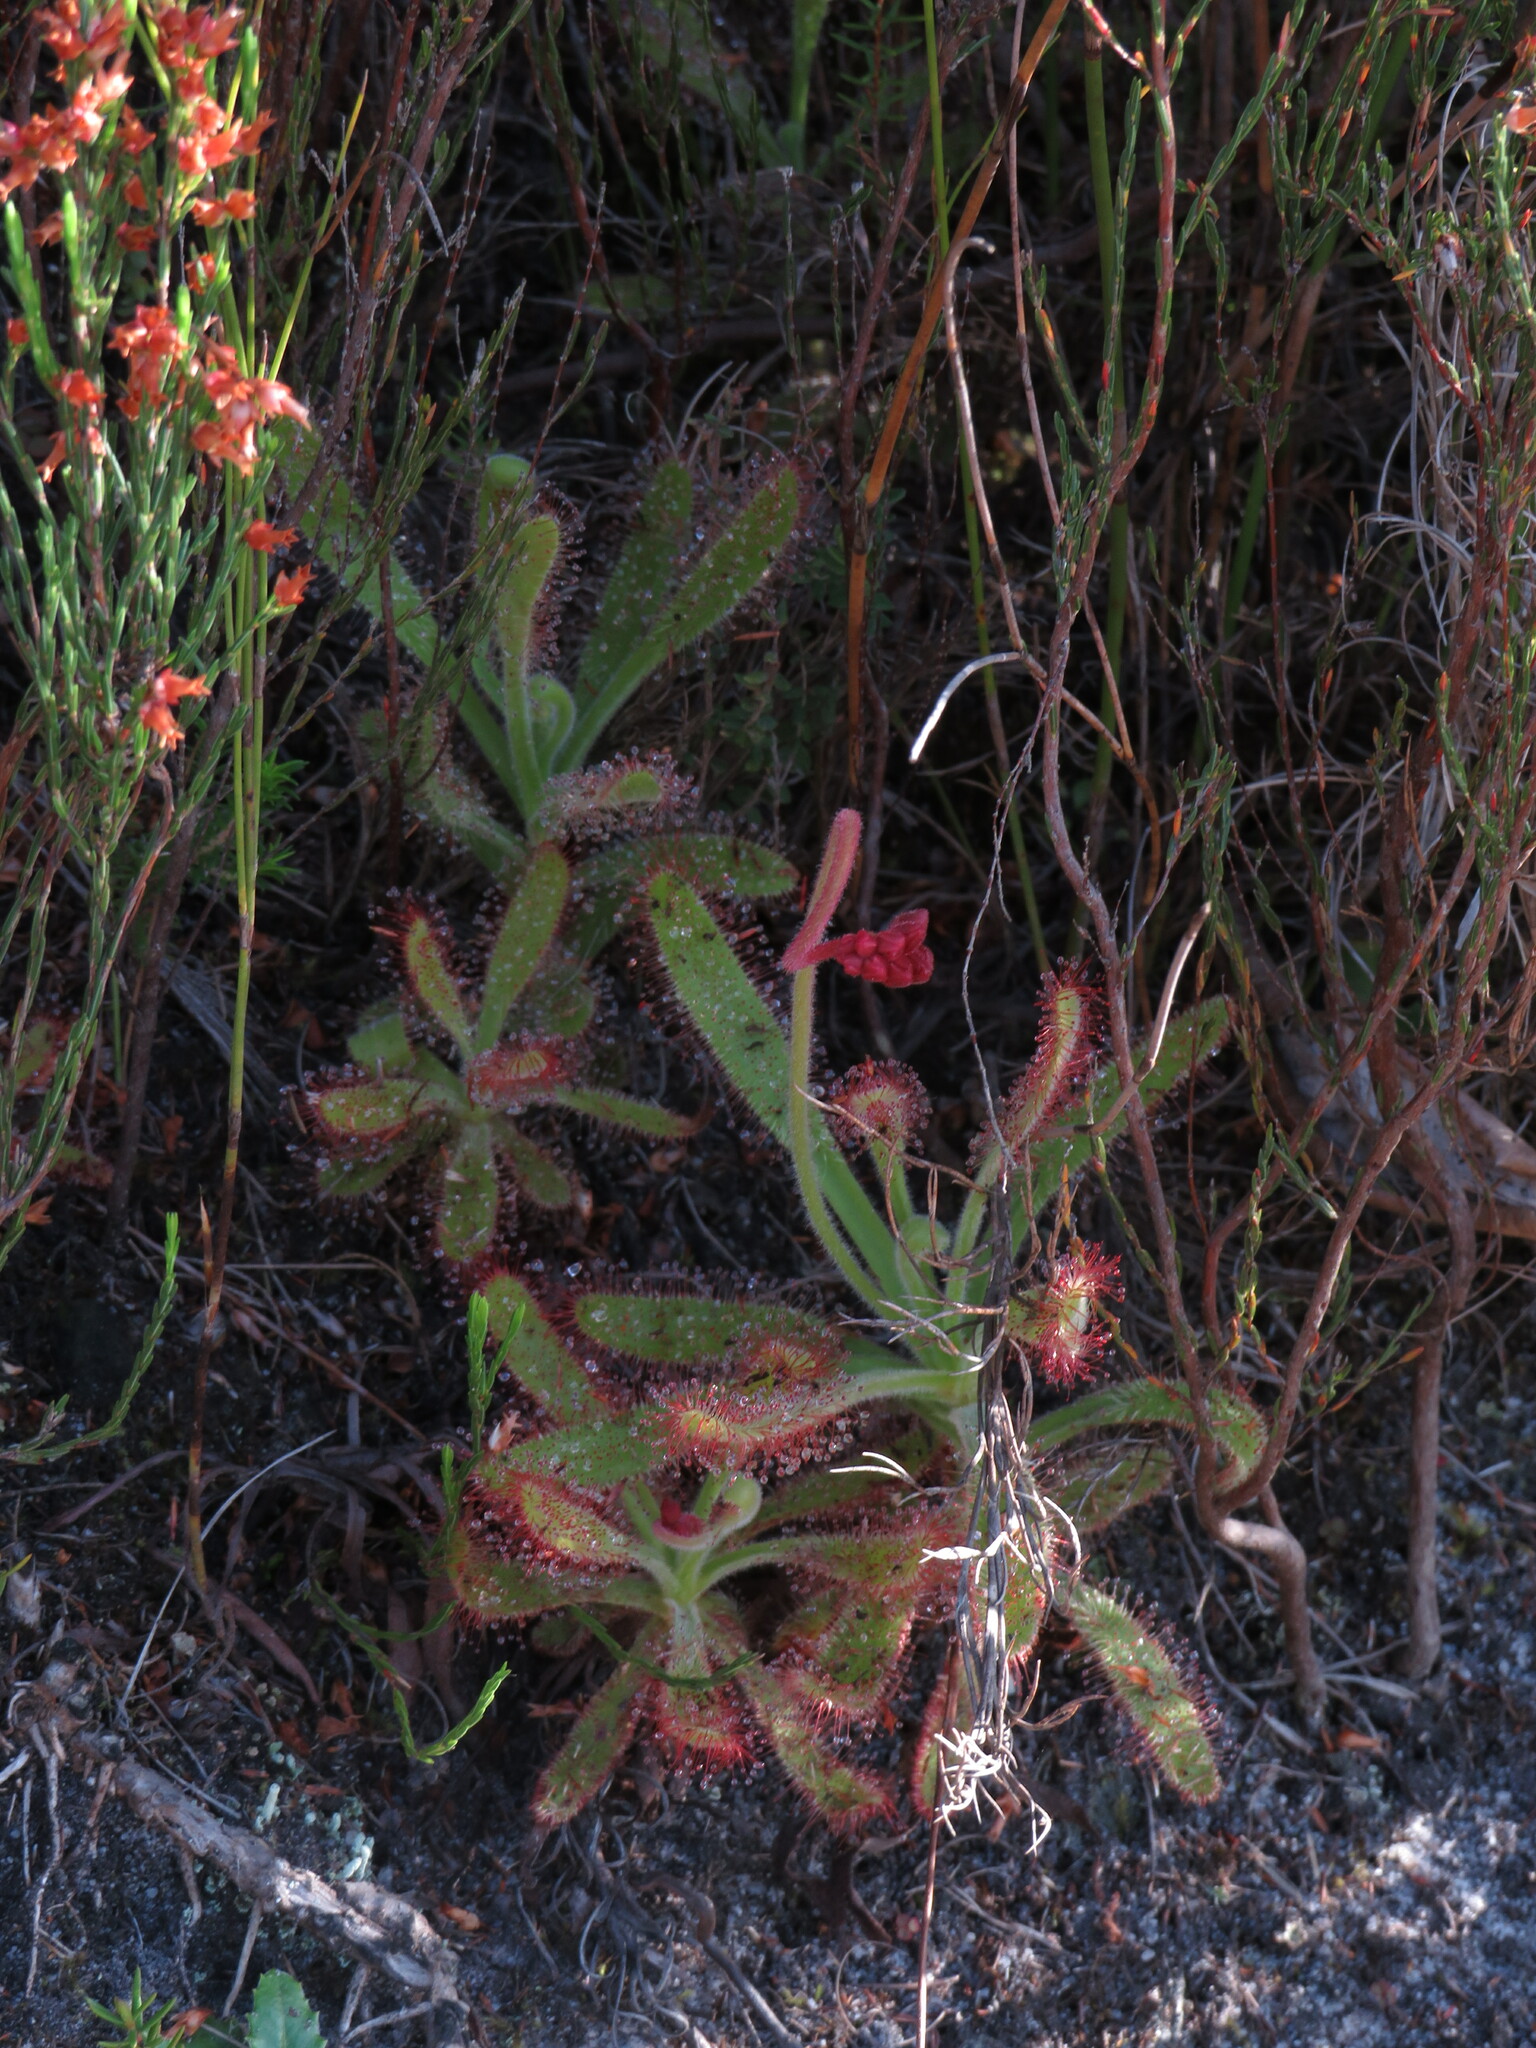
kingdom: Plantae
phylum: Tracheophyta
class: Magnoliopsida
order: Caryophyllales
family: Droseraceae
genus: Drosera
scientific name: Drosera hilaris
